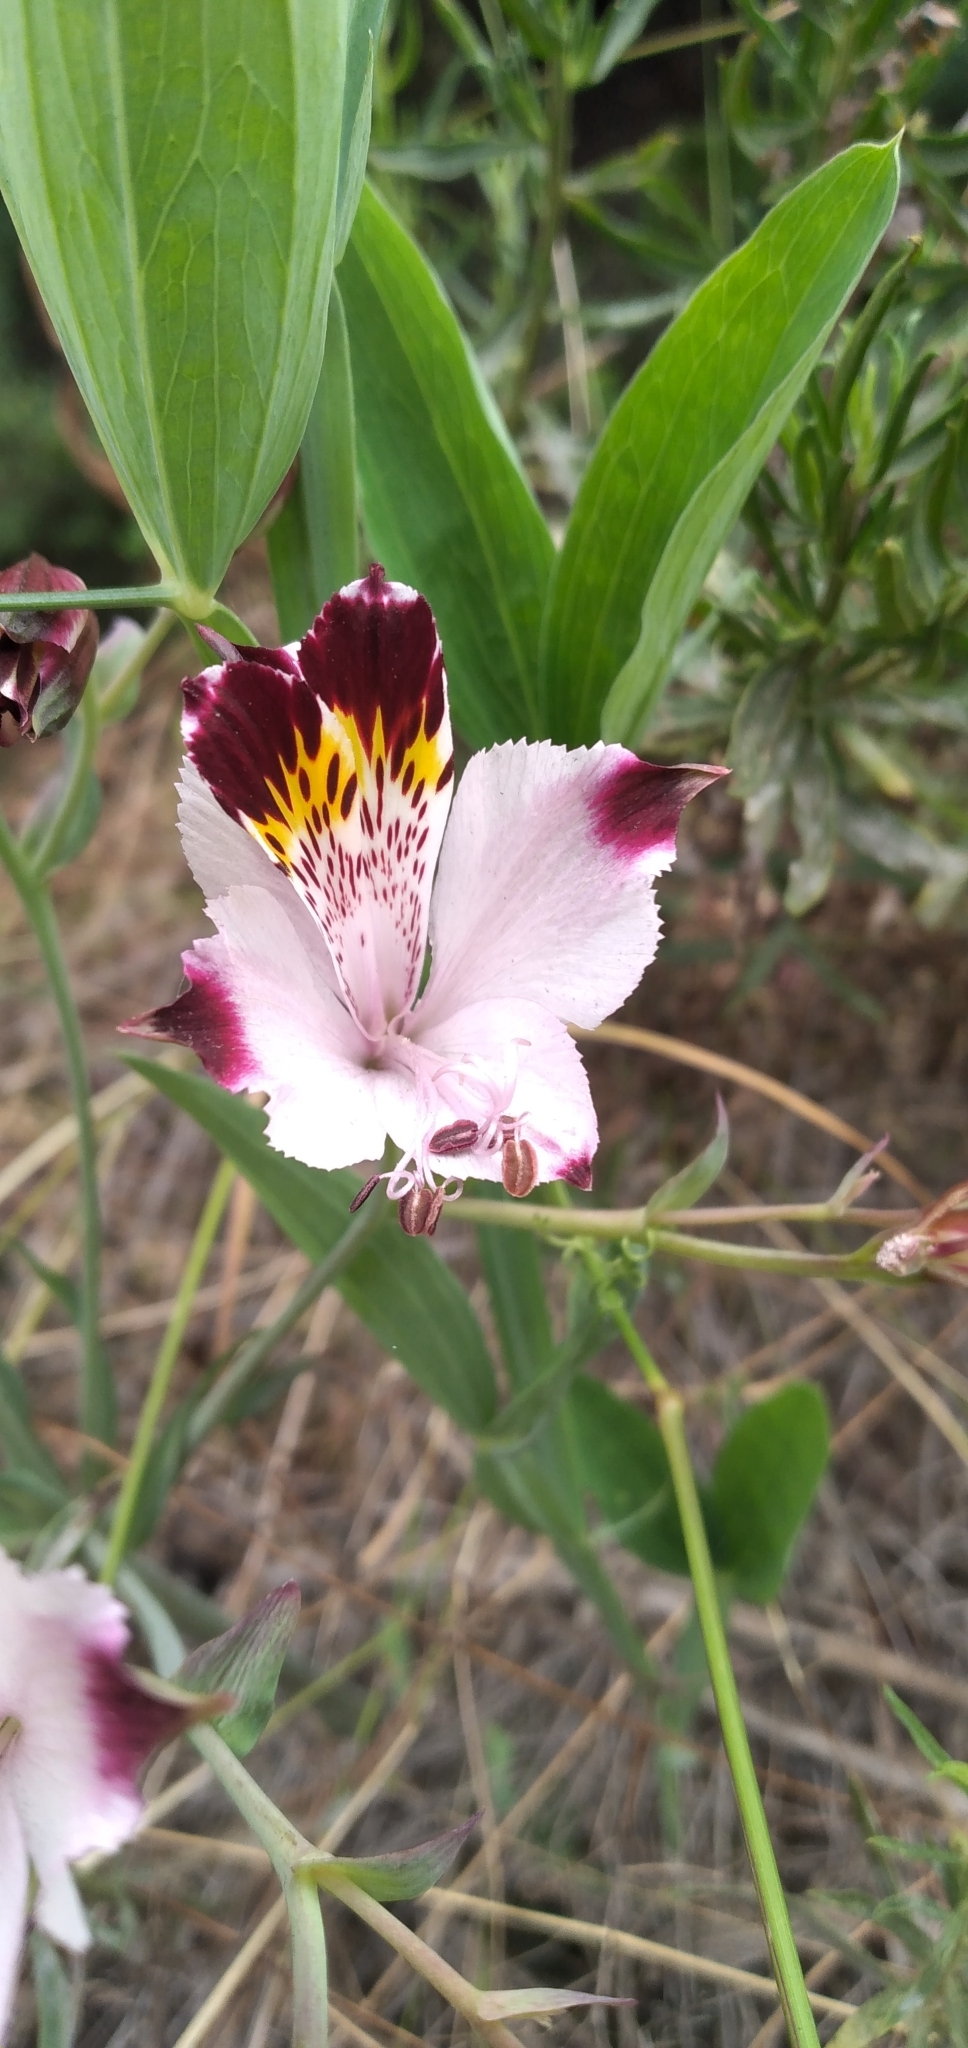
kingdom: Plantae
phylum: Tracheophyta
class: Liliopsida
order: Liliales
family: Alstroemeriaceae
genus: Alstroemeria
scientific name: Alstroemeria pulchra
